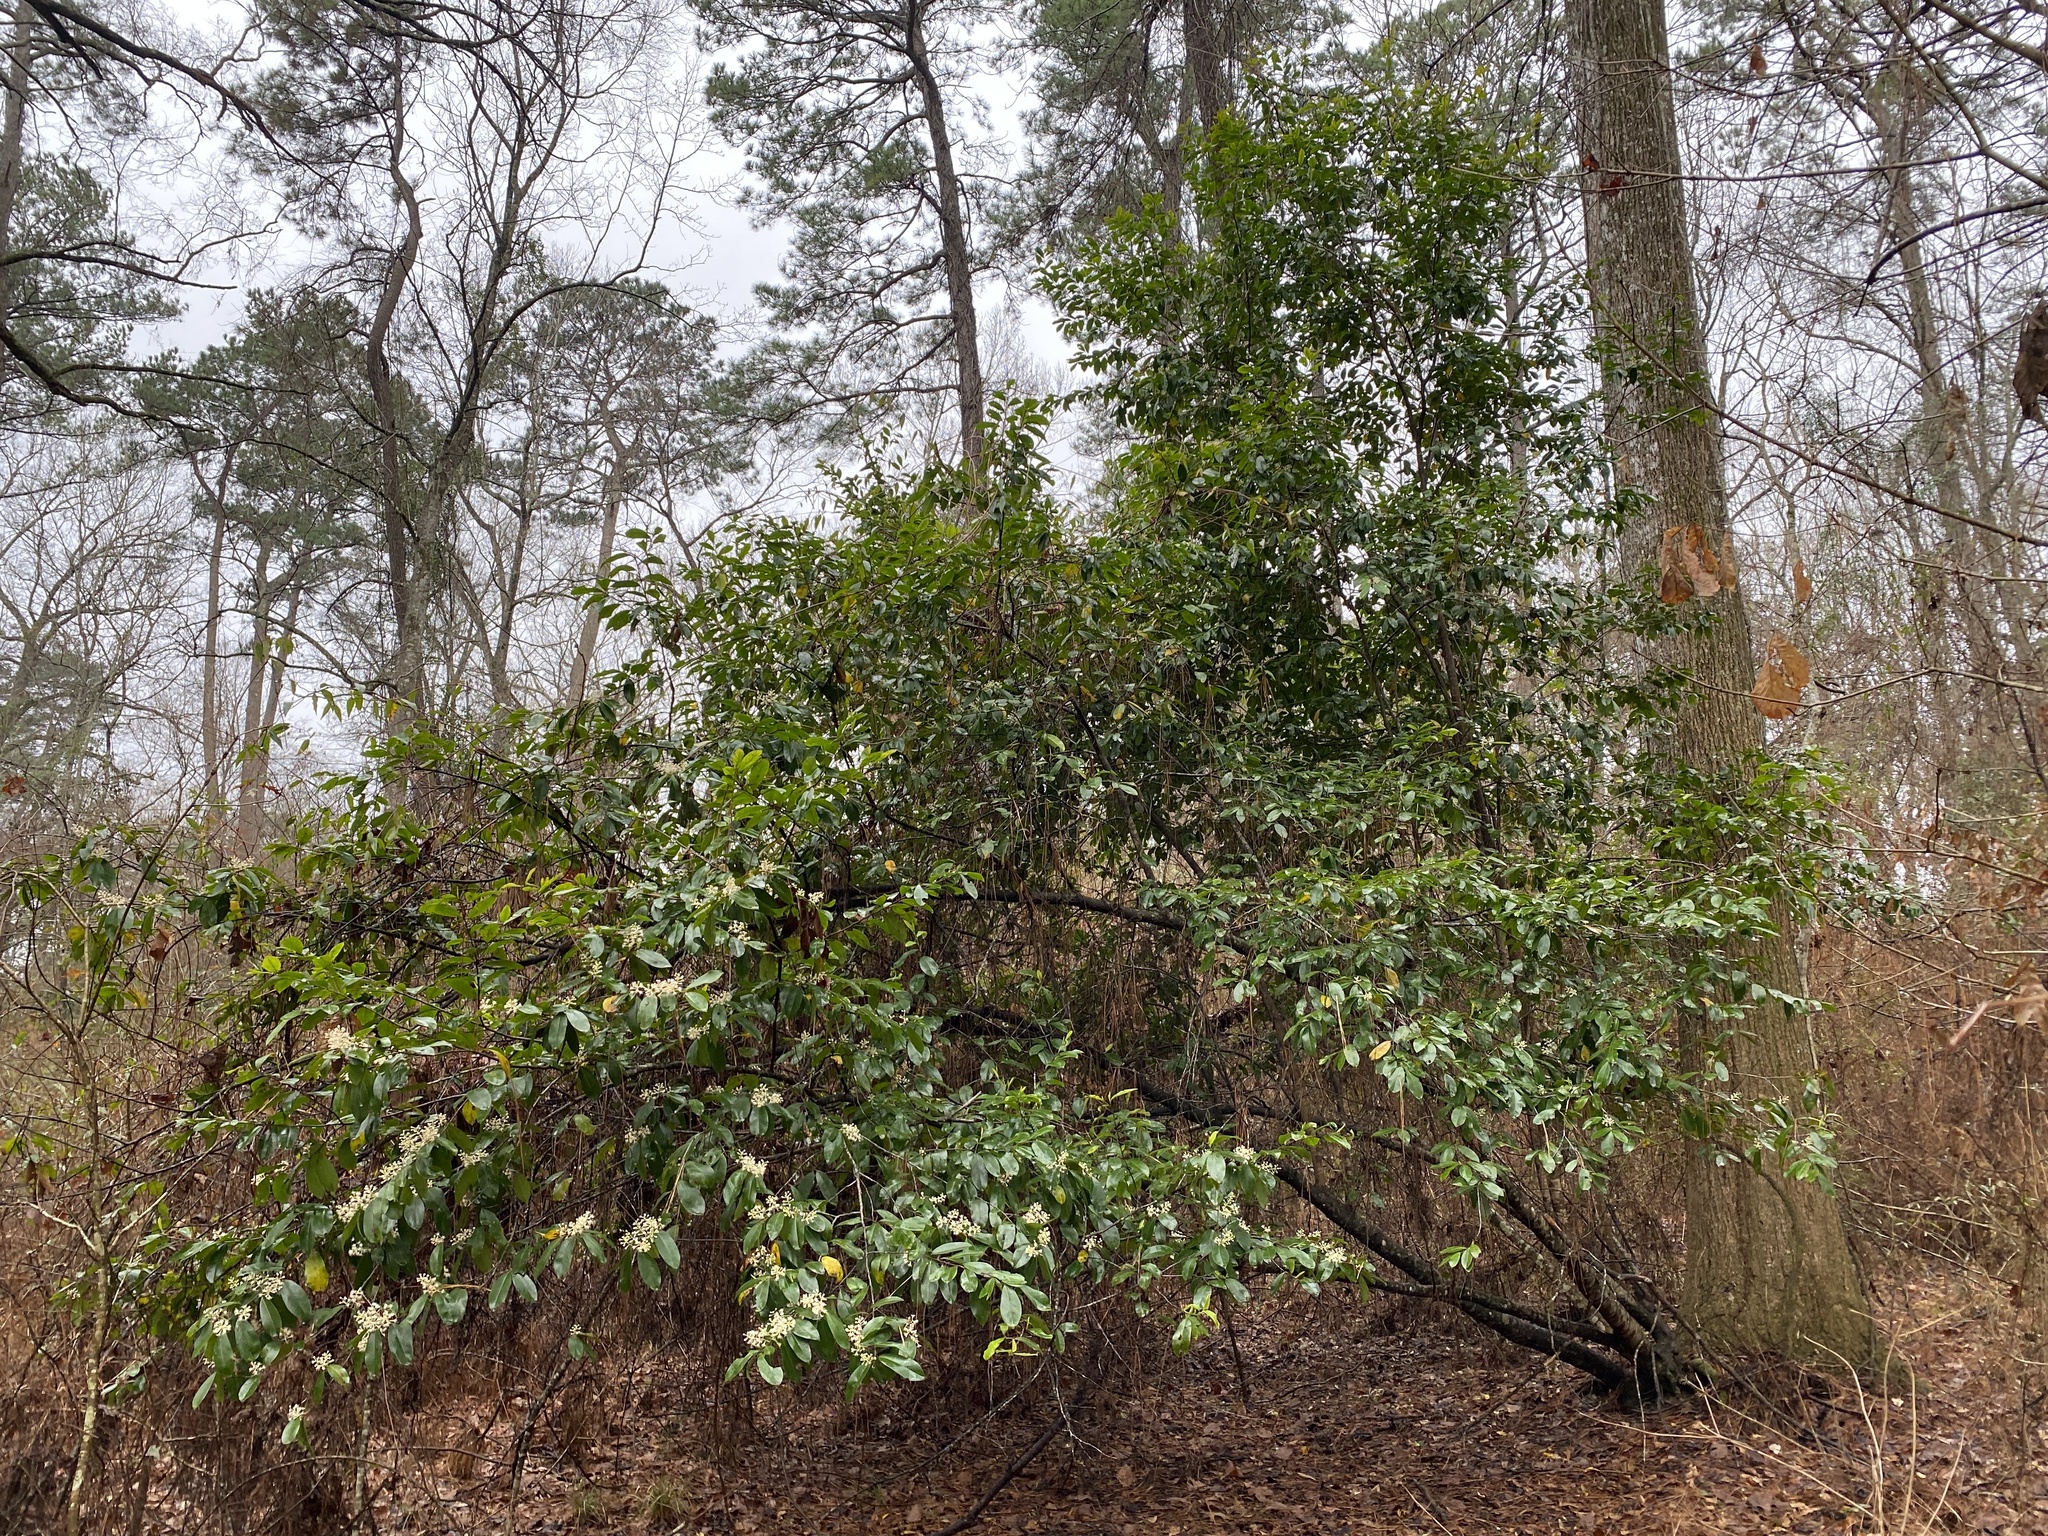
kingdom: Plantae
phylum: Tracheophyta
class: Magnoliopsida
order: Rosales
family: Rosaceae
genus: Prunus
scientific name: Prunus caroliniana
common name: Carolina laurel cherry
